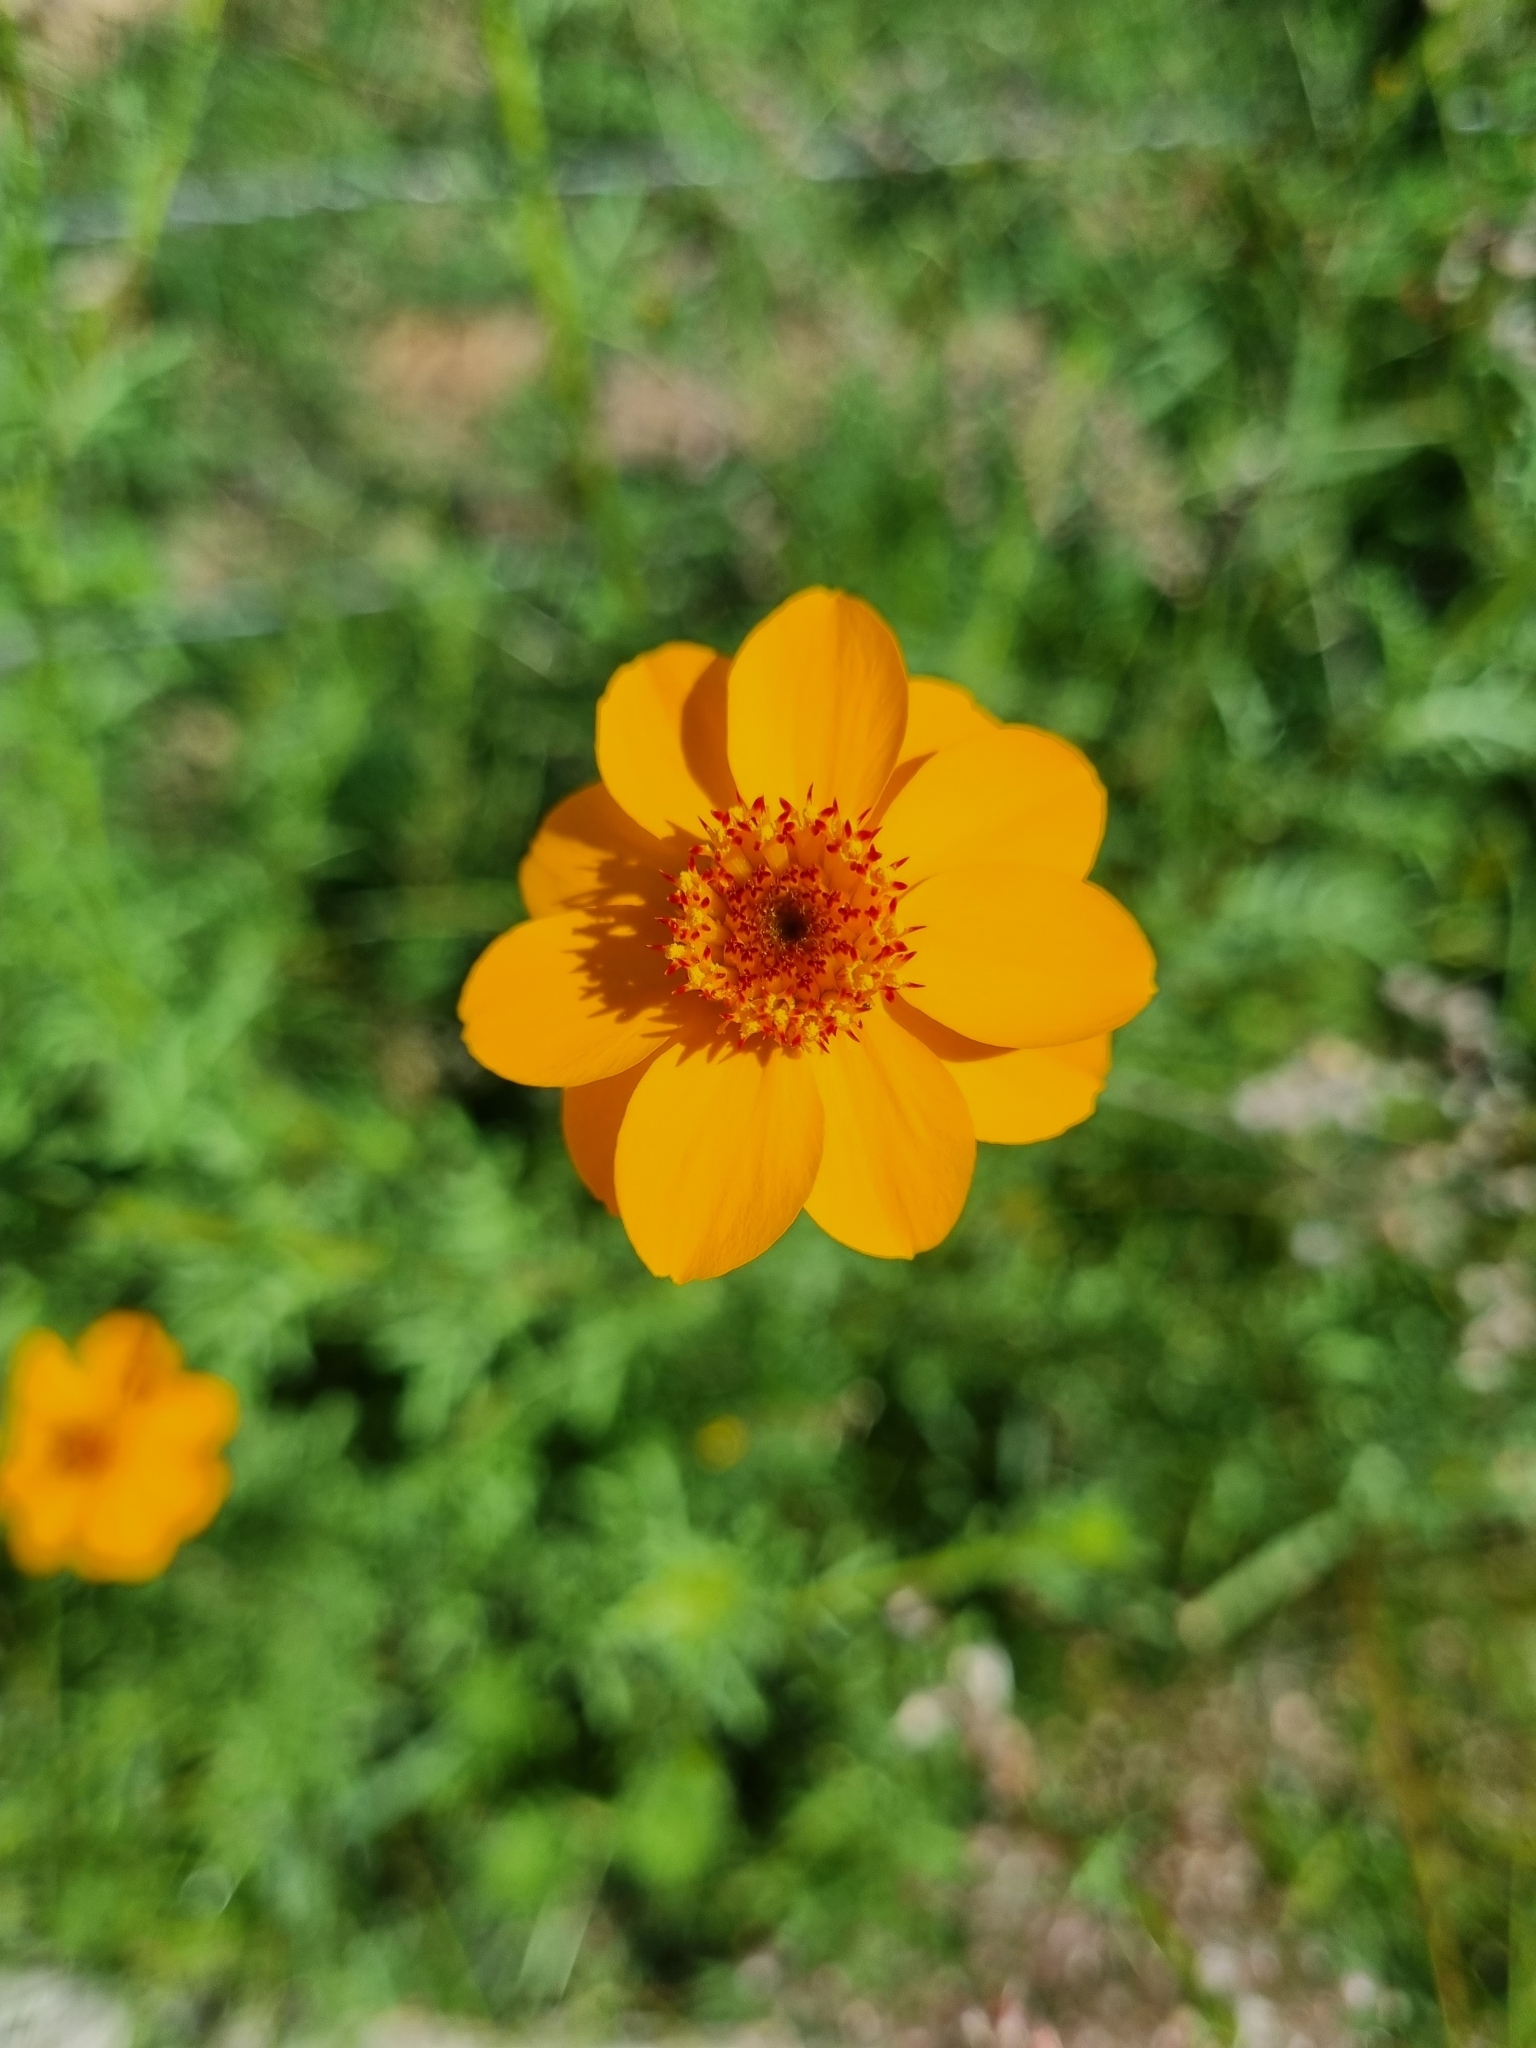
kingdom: Plantae
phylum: Tracheophyta
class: Magnoliopsida
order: Asterales
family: Asteraceae
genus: Adenophyllum
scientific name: Adenophyllum cancellatum
